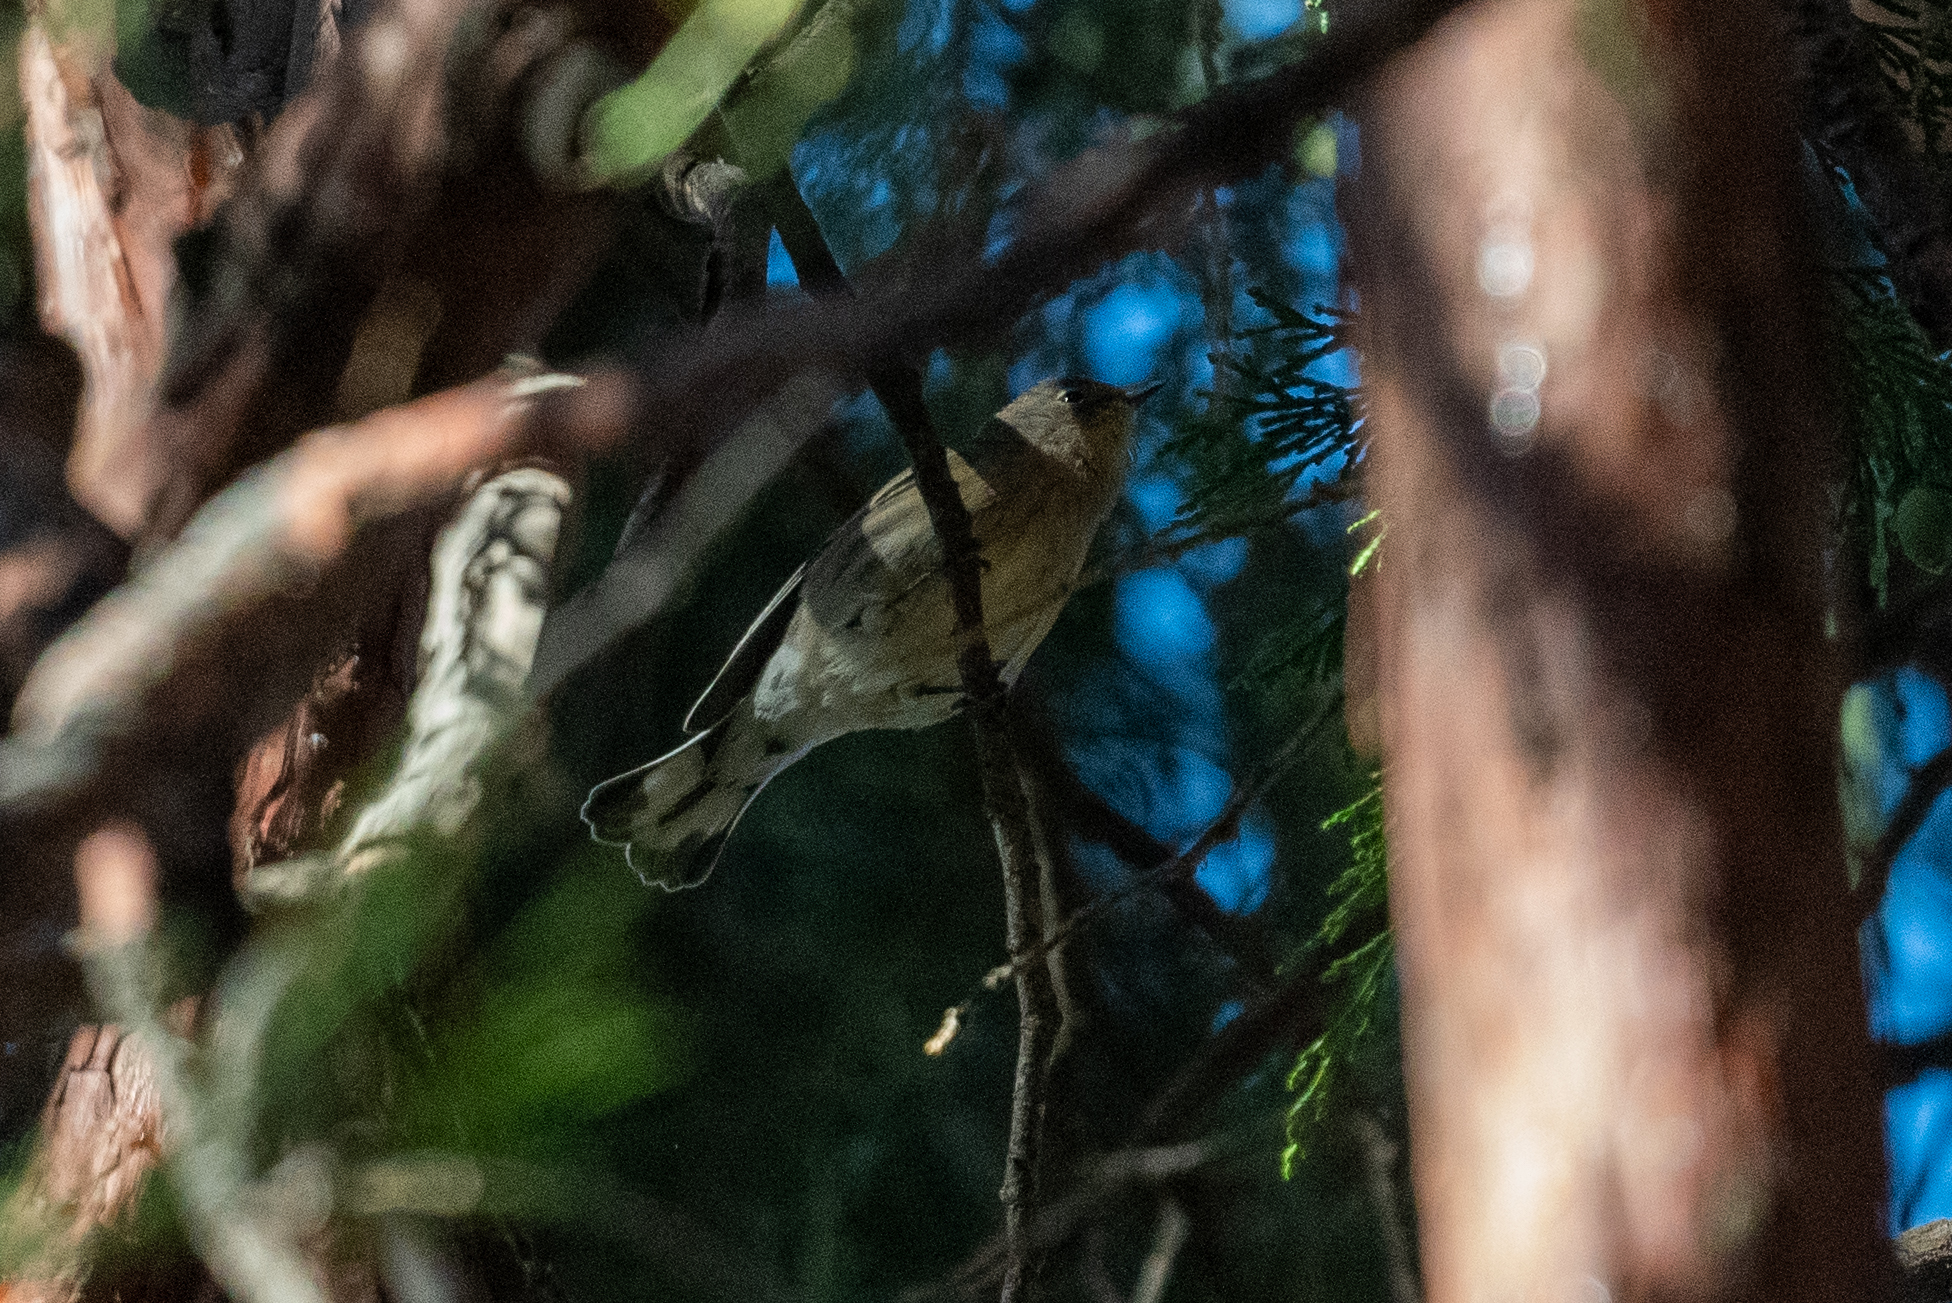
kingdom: Animalia
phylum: Chordata
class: Aves
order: Passeriformes
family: Parulidae
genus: Setophaga
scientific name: Setophaga coronata
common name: Myrtle warbler
